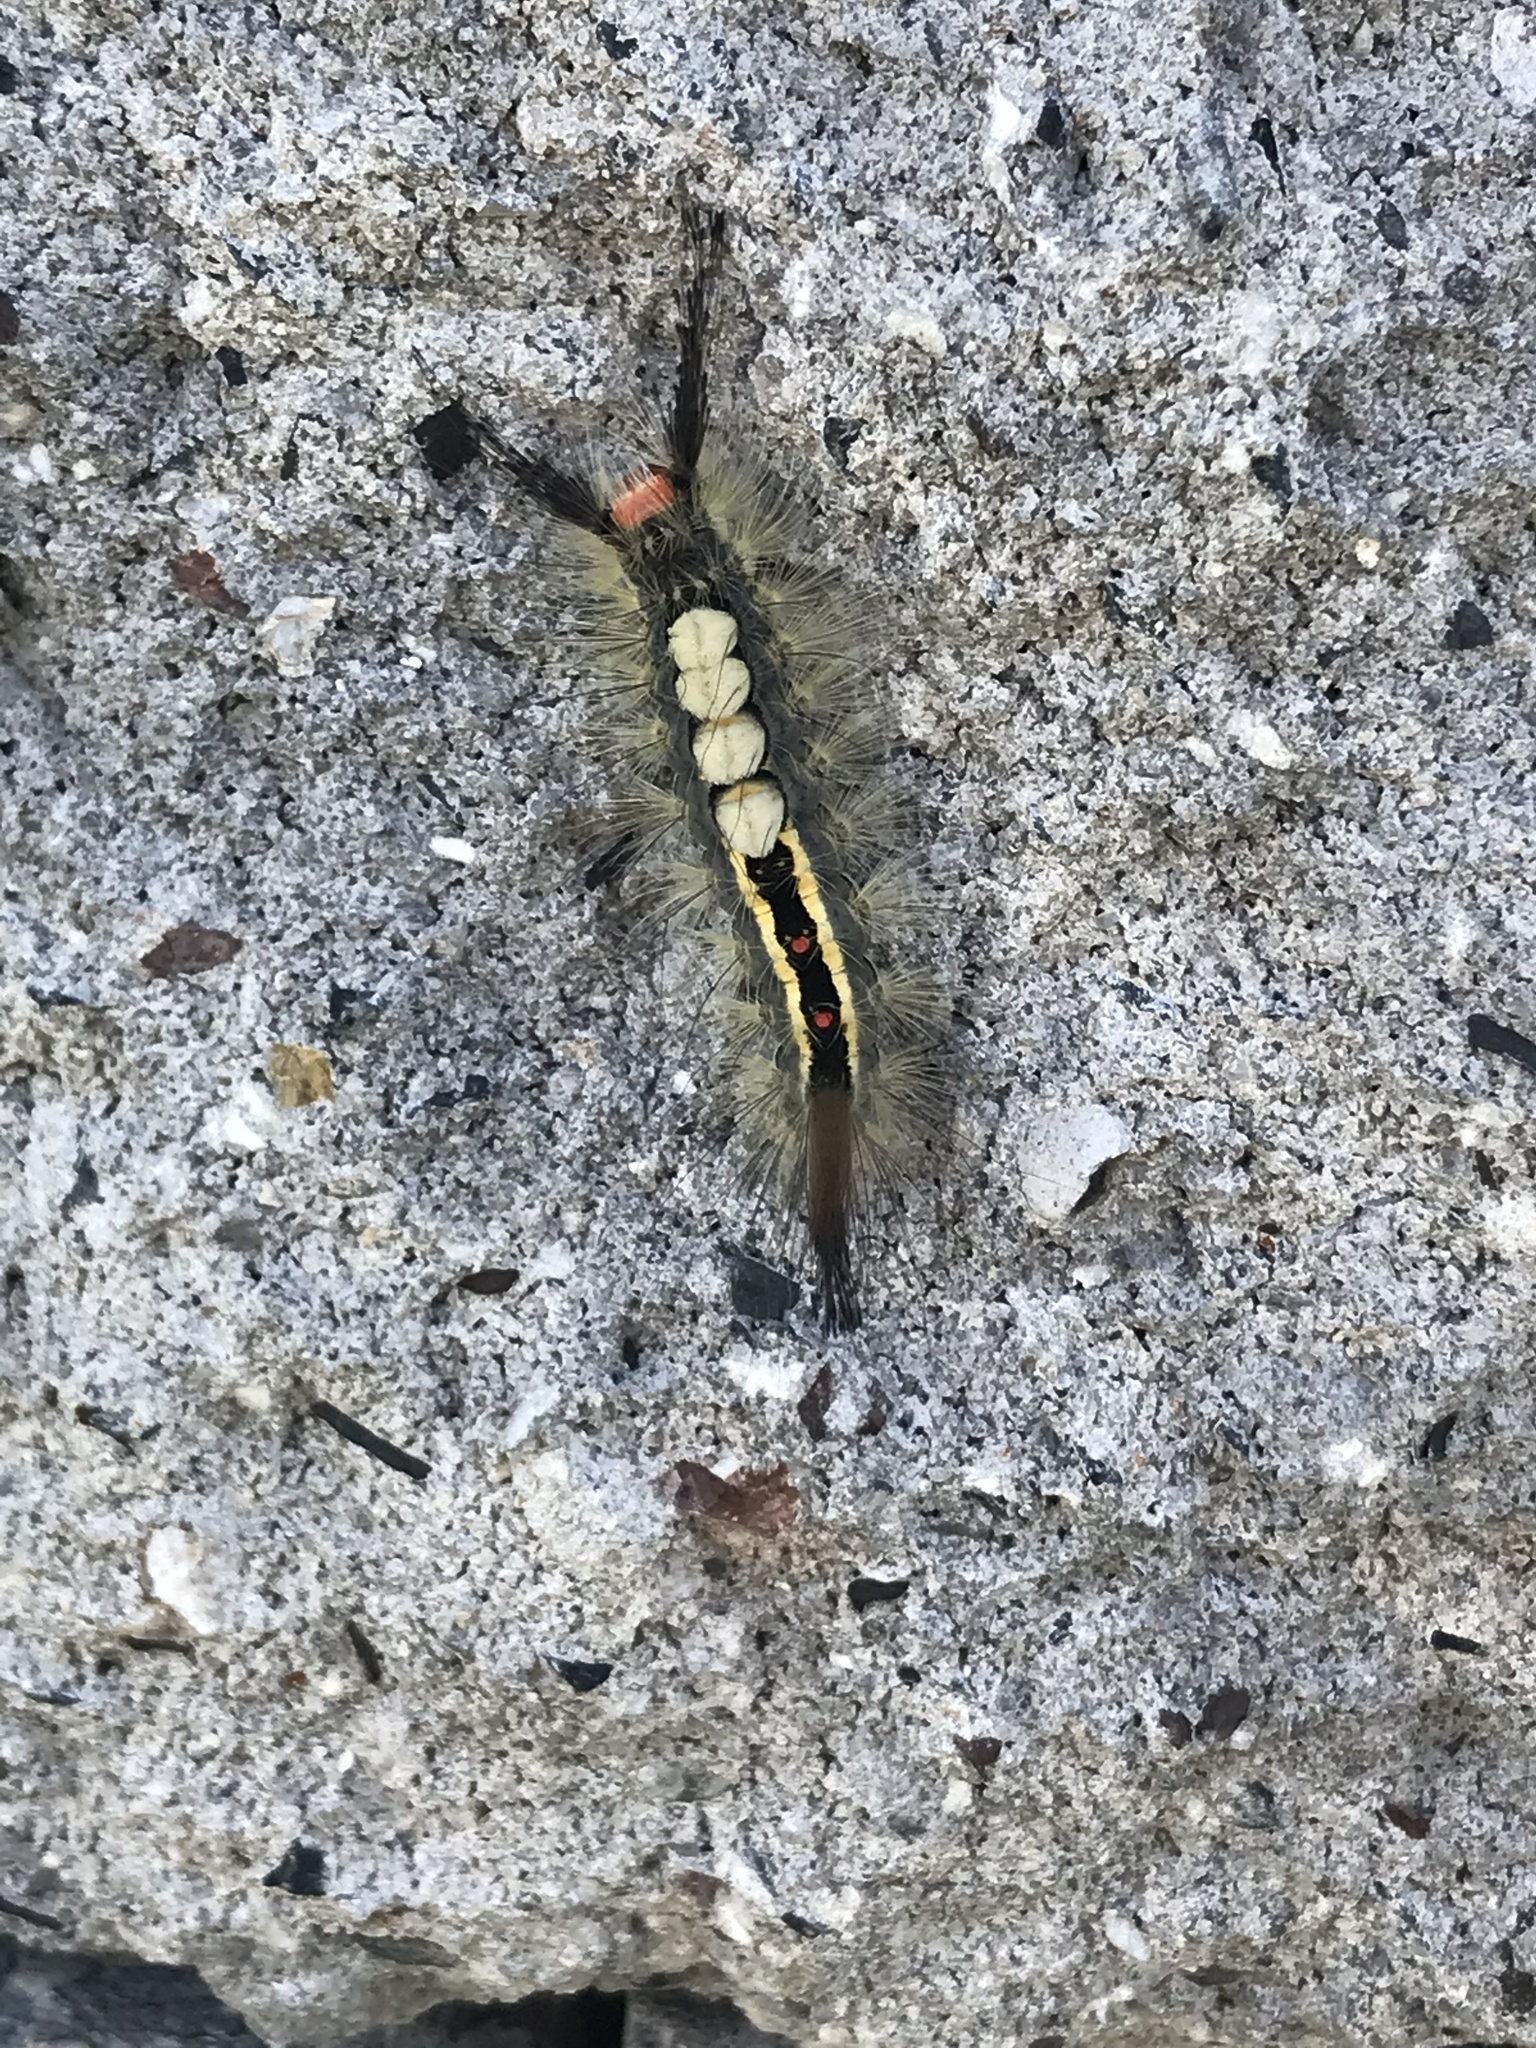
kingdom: Animalia
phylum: Arthropoda
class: Insecta
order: Lepidoptera
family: Erebidae
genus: Orgyia
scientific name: Orgyia leucostigma
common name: White-marked tussock moth
